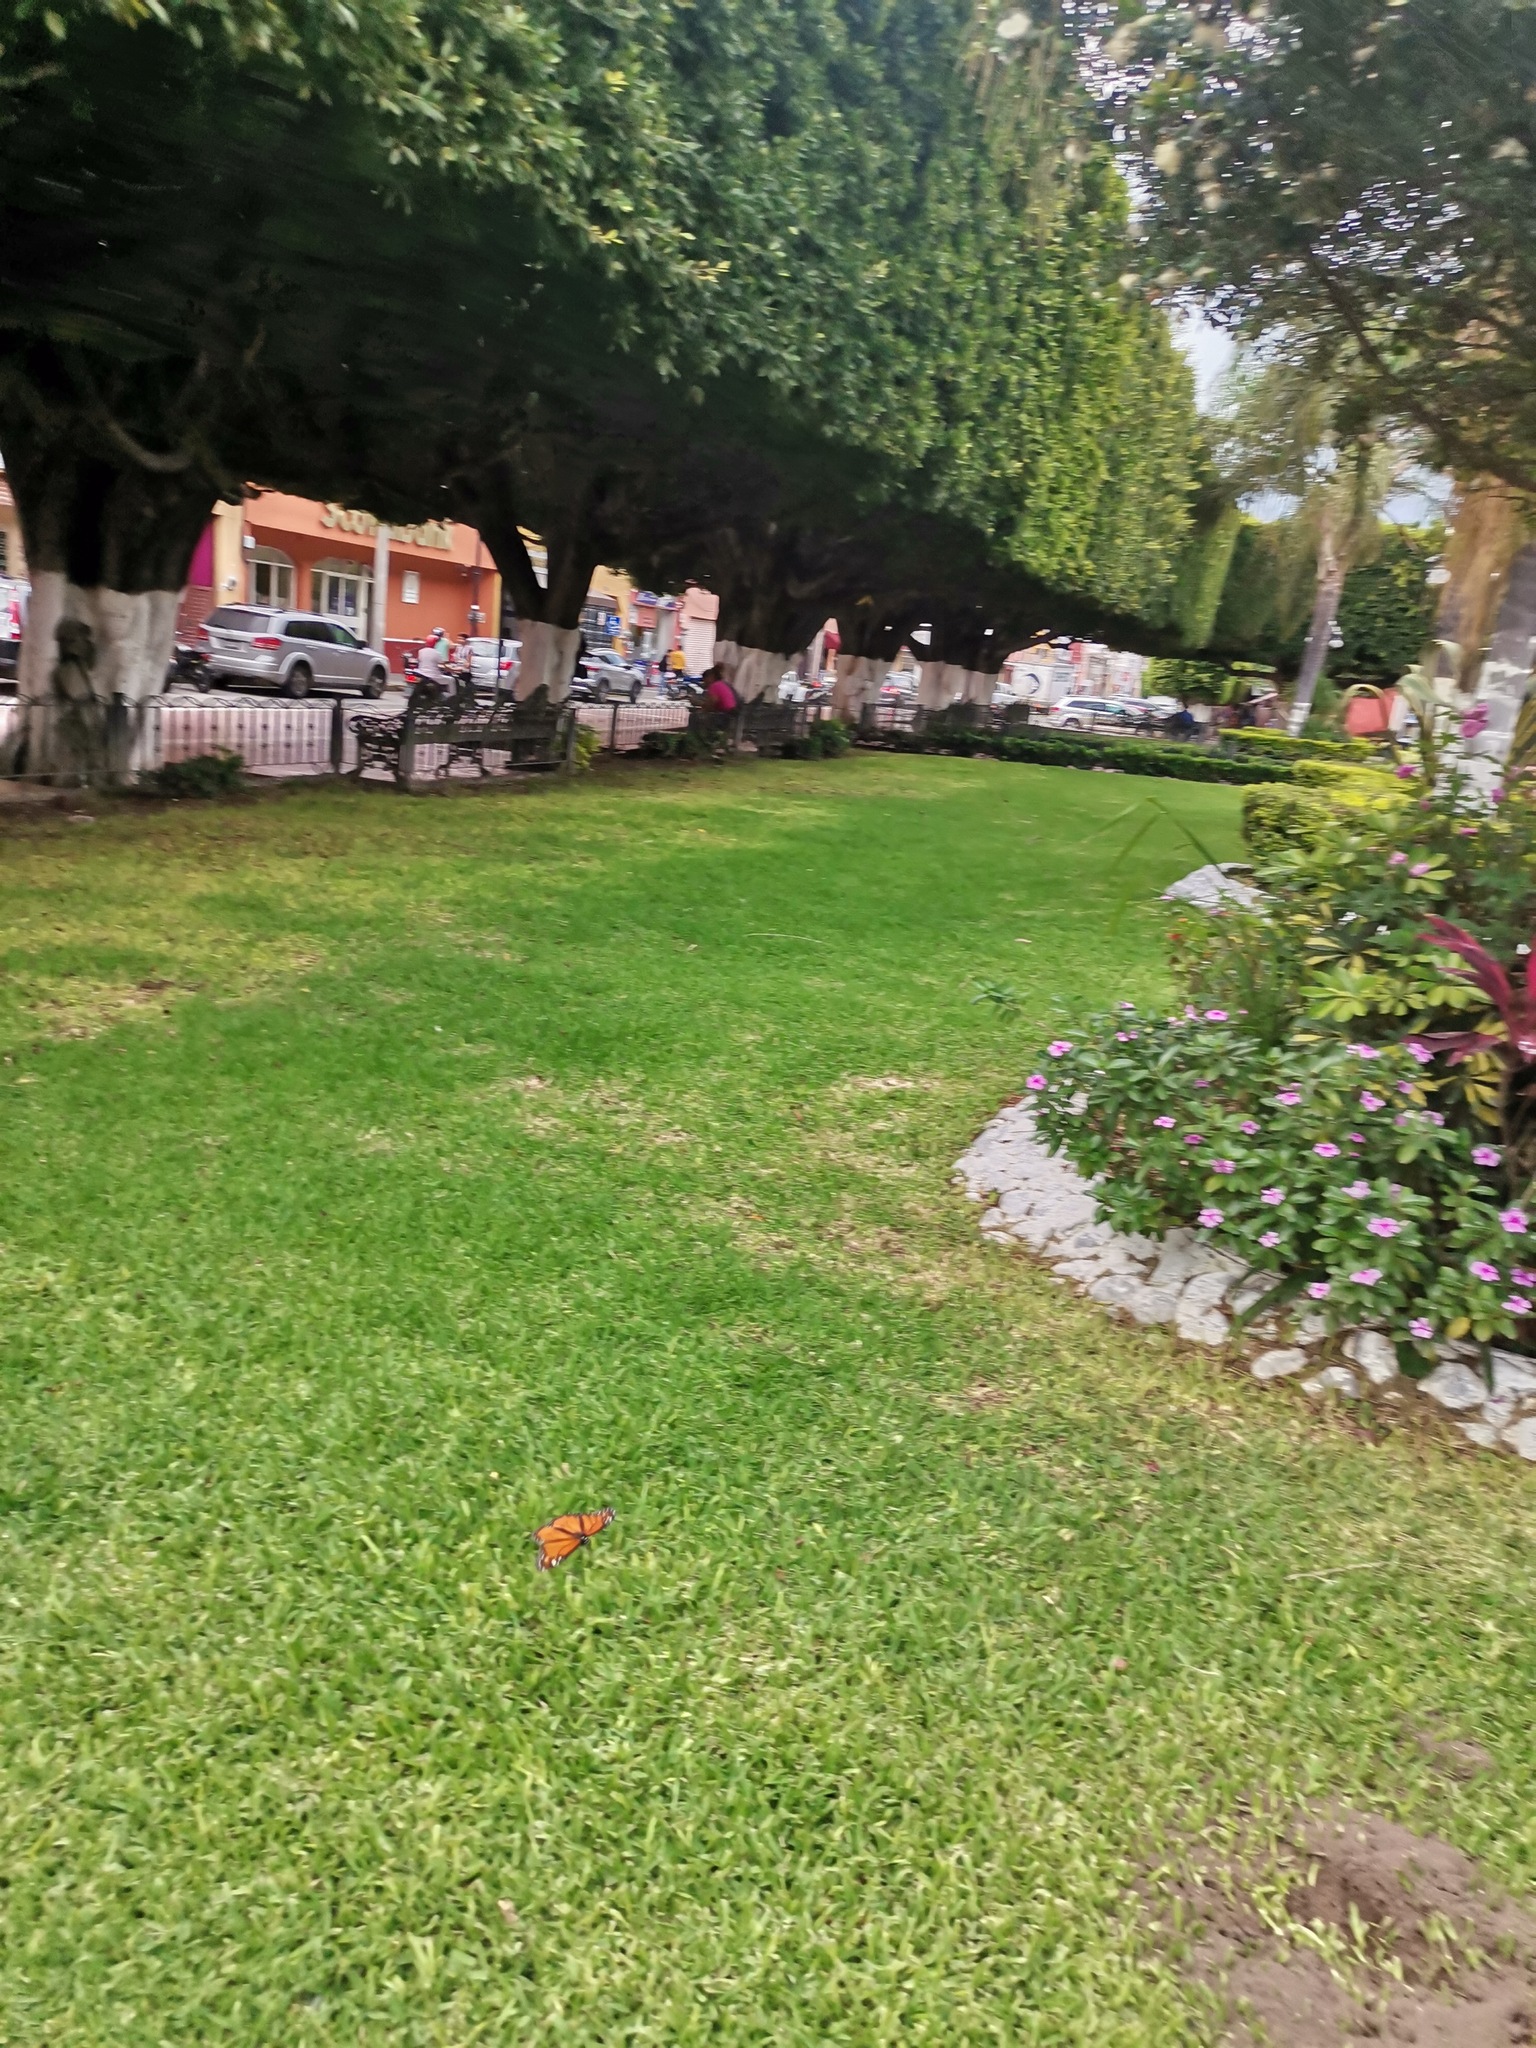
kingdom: Animalia
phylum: Arthropoda
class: Insecta
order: Lepidoptera
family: Nymphalidae
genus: Danaus
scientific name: Danaus plexippus
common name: Monarch
